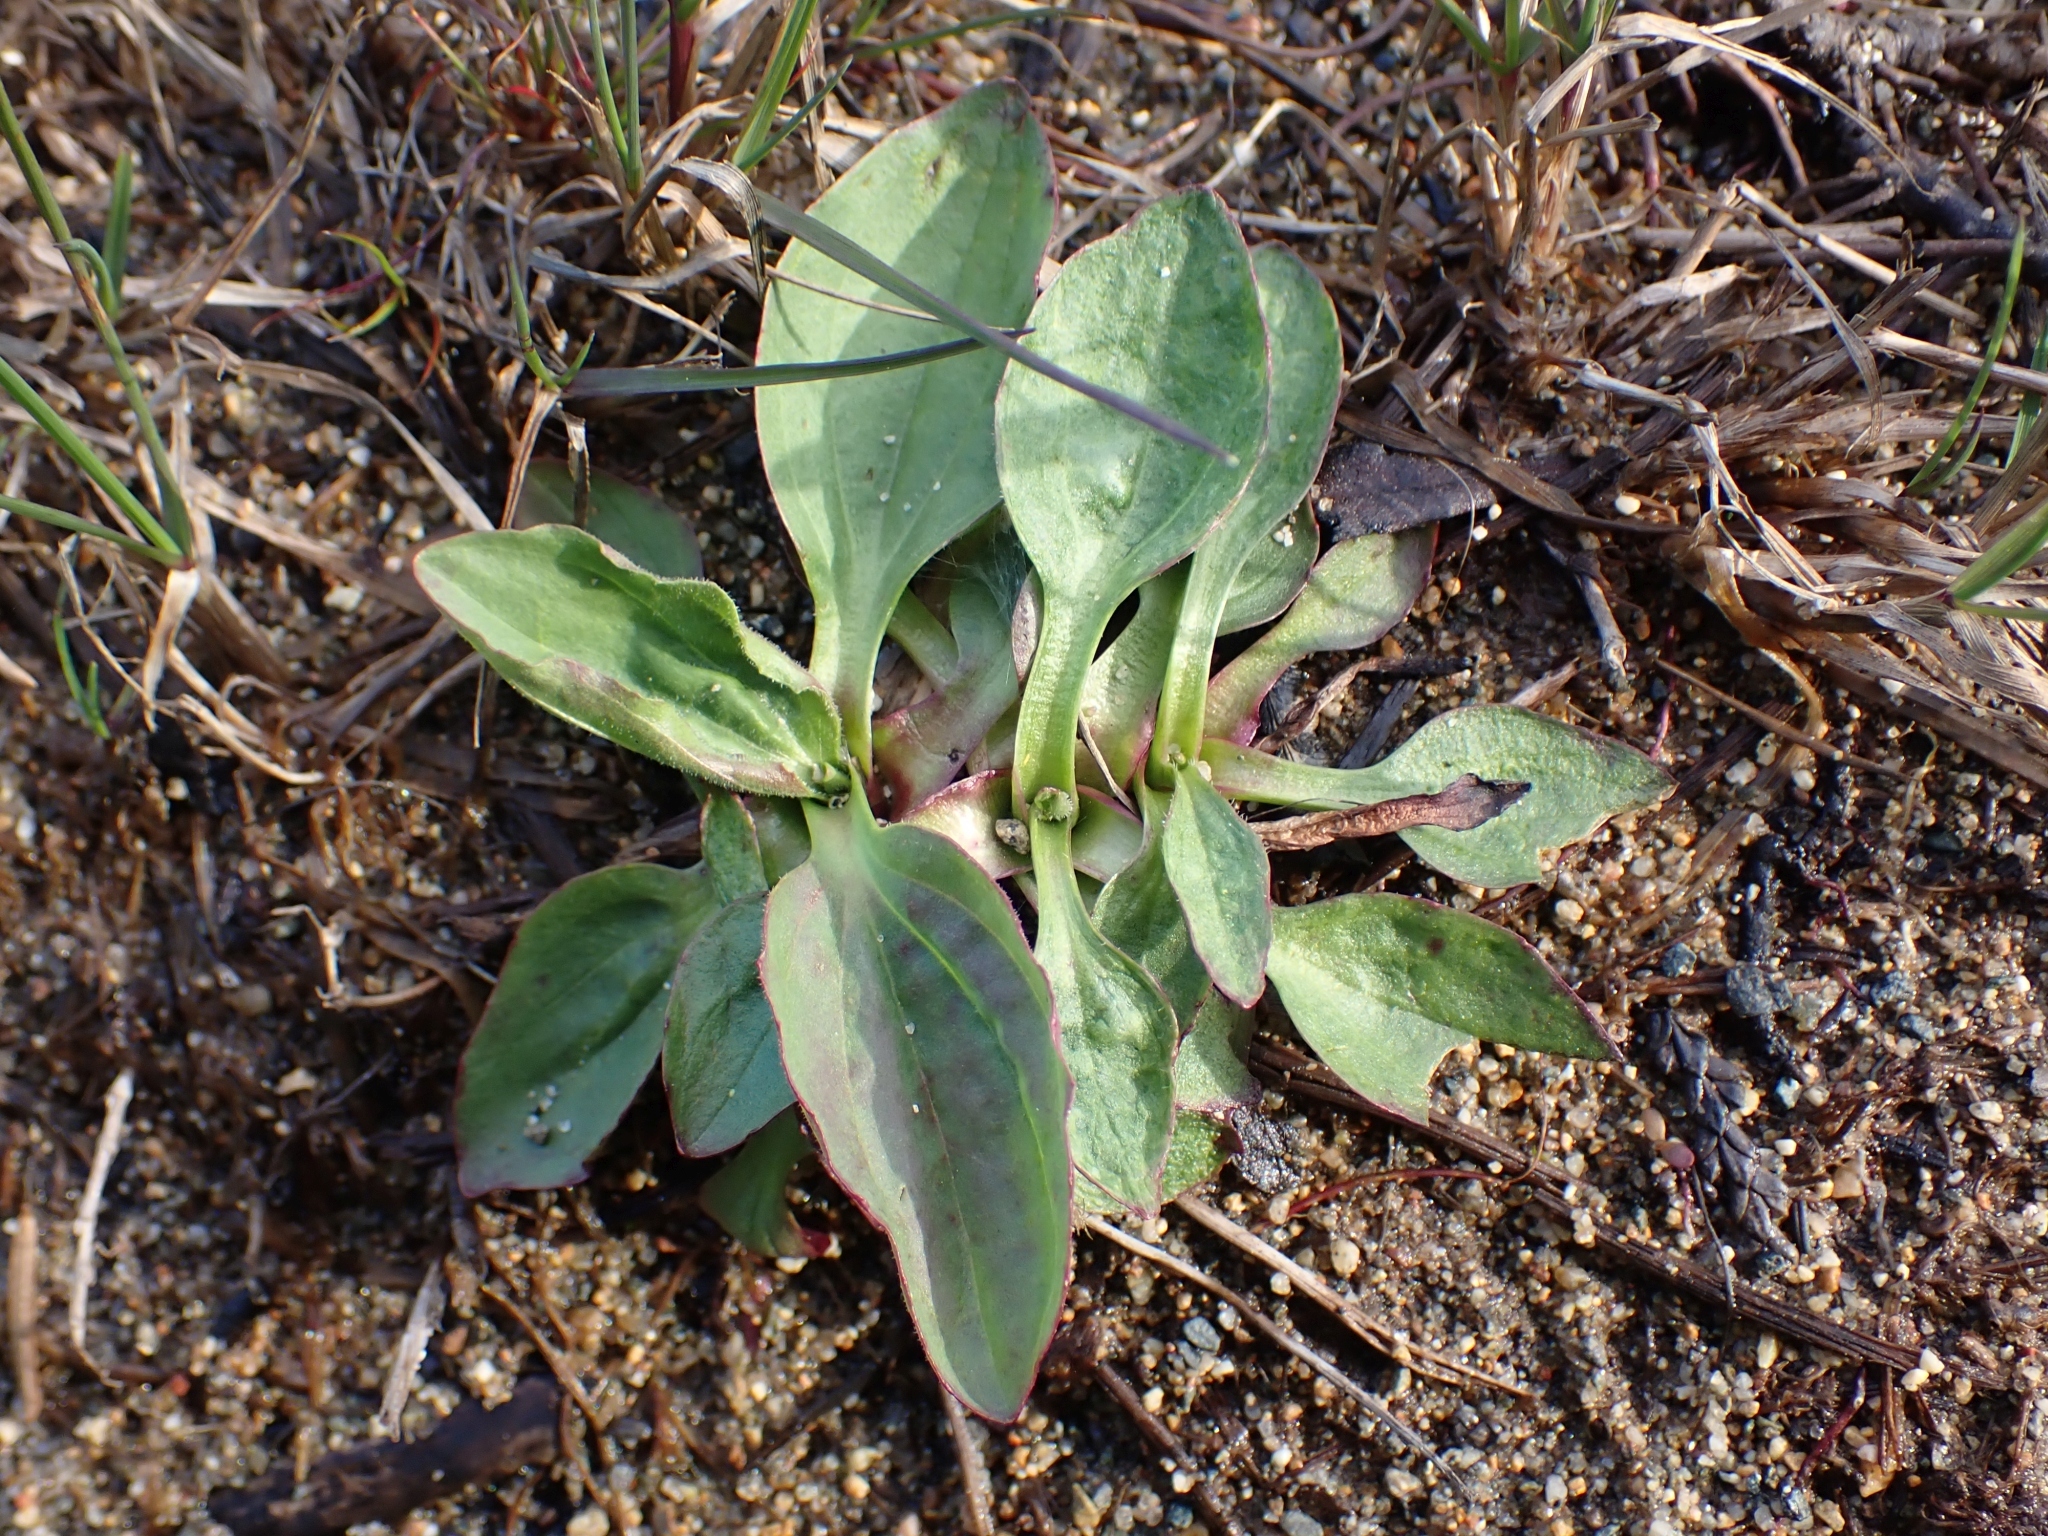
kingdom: Plantae
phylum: Tracheophyta
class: Magnoliopsida
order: Lamiales
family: Plantaginaceae
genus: Plantago
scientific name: Plantago major
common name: Common plantain
